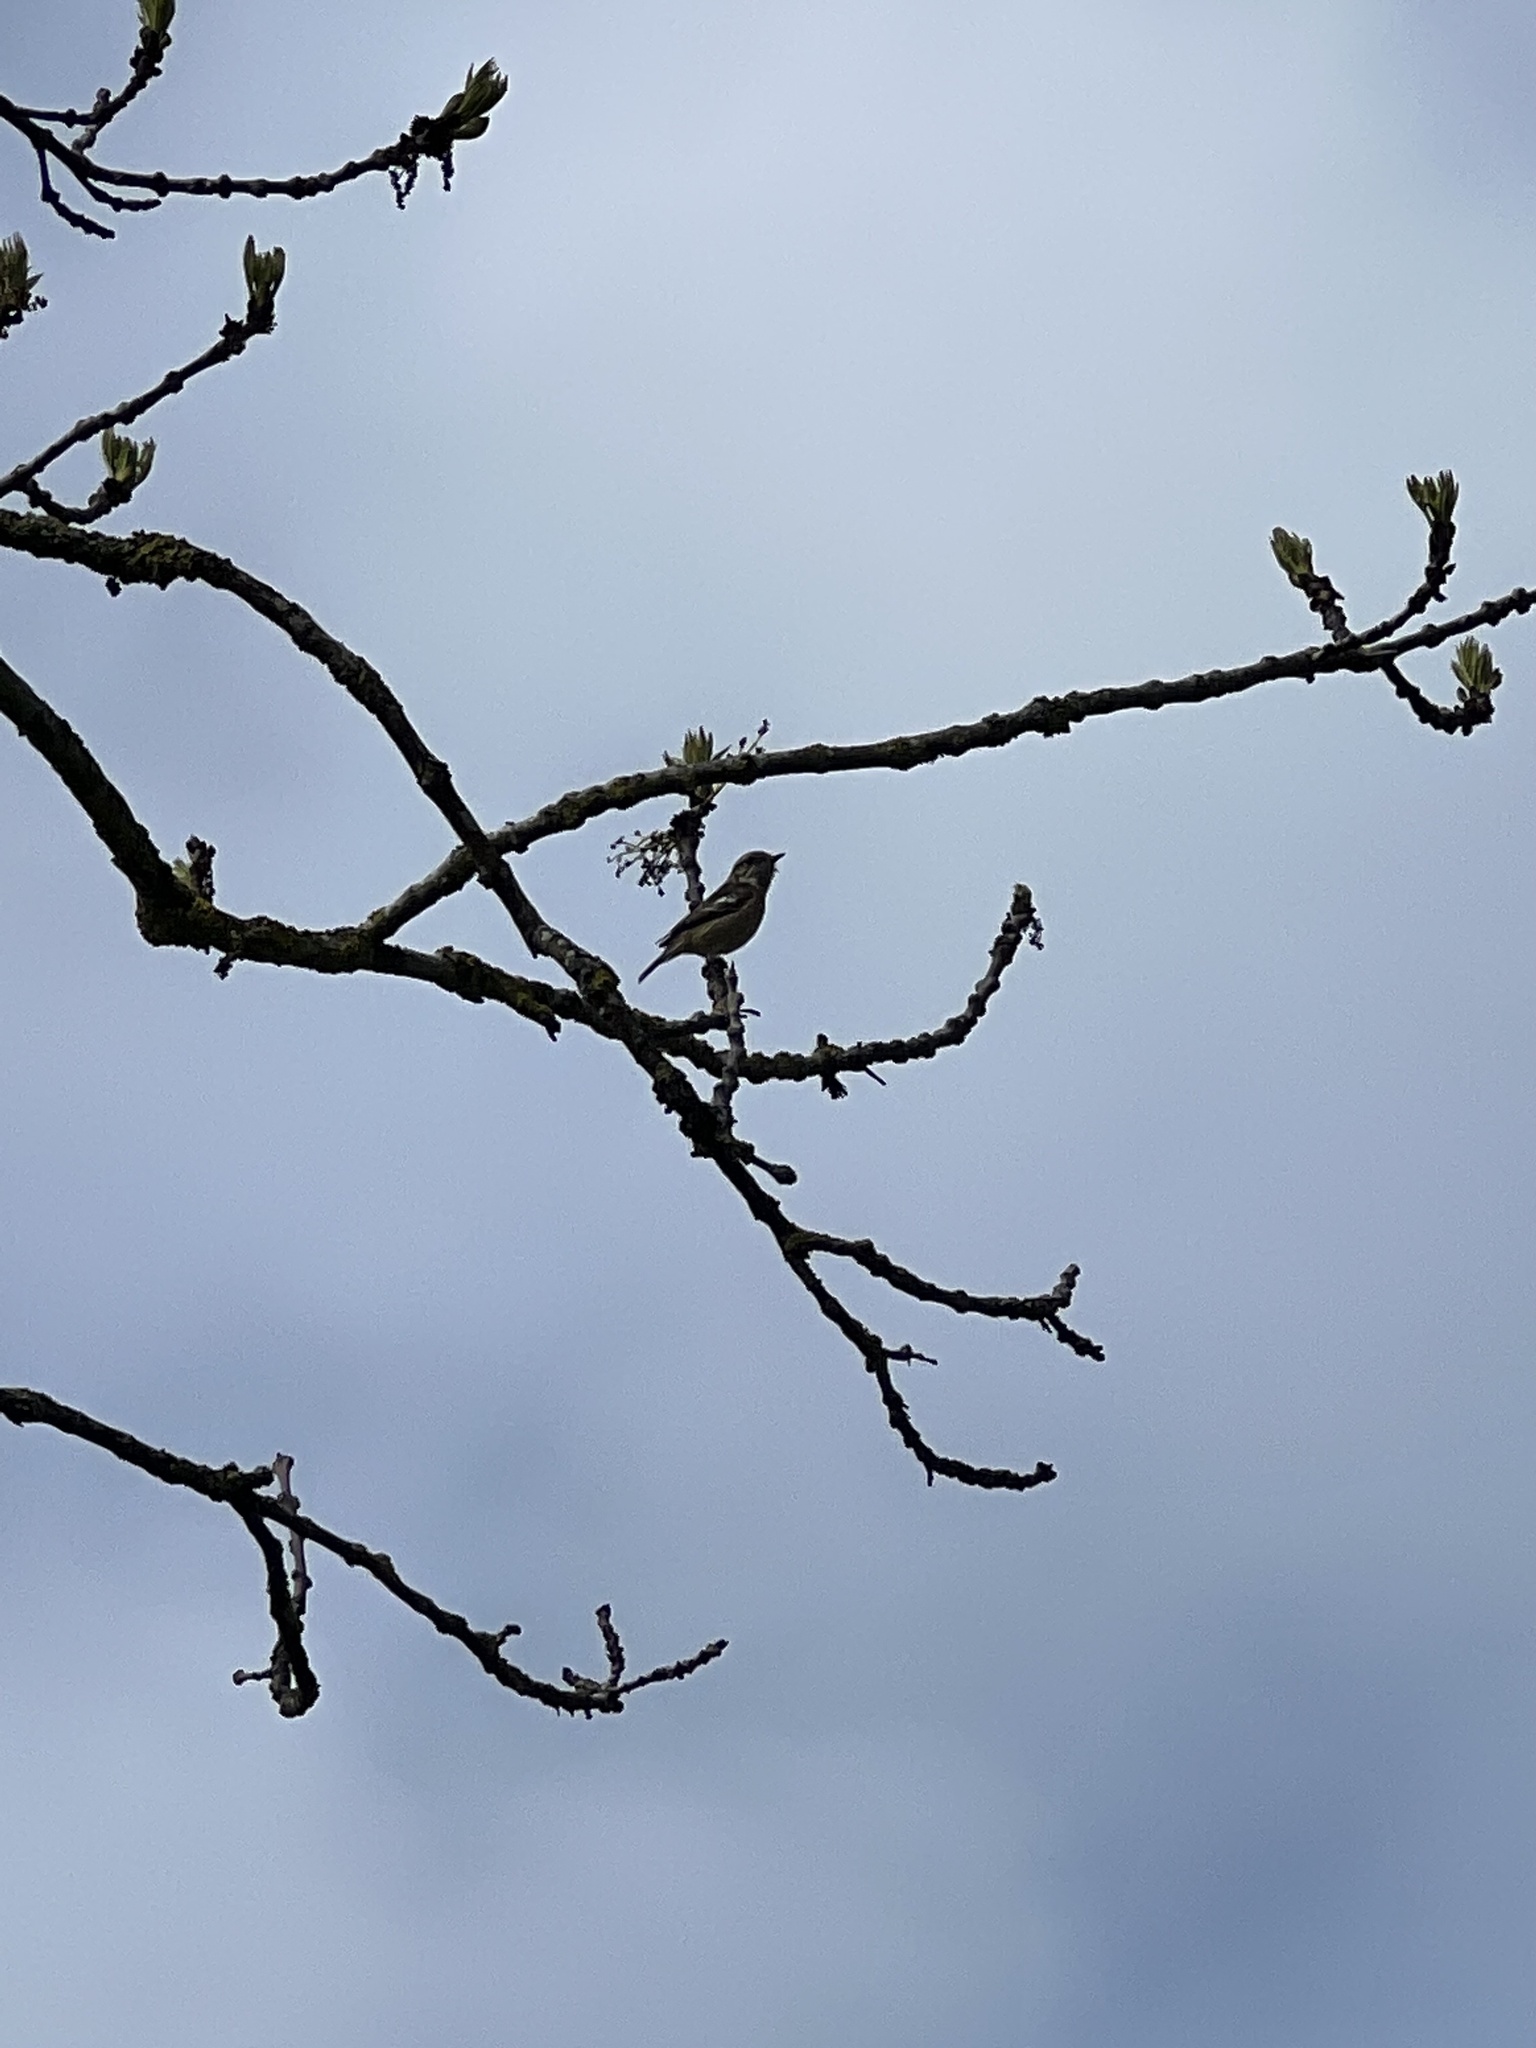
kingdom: Animalia
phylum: Chordata
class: Aves
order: Passeriformes
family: Muscicapidae
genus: Saxicola
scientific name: Saxicola rubicola
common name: European stonechat
